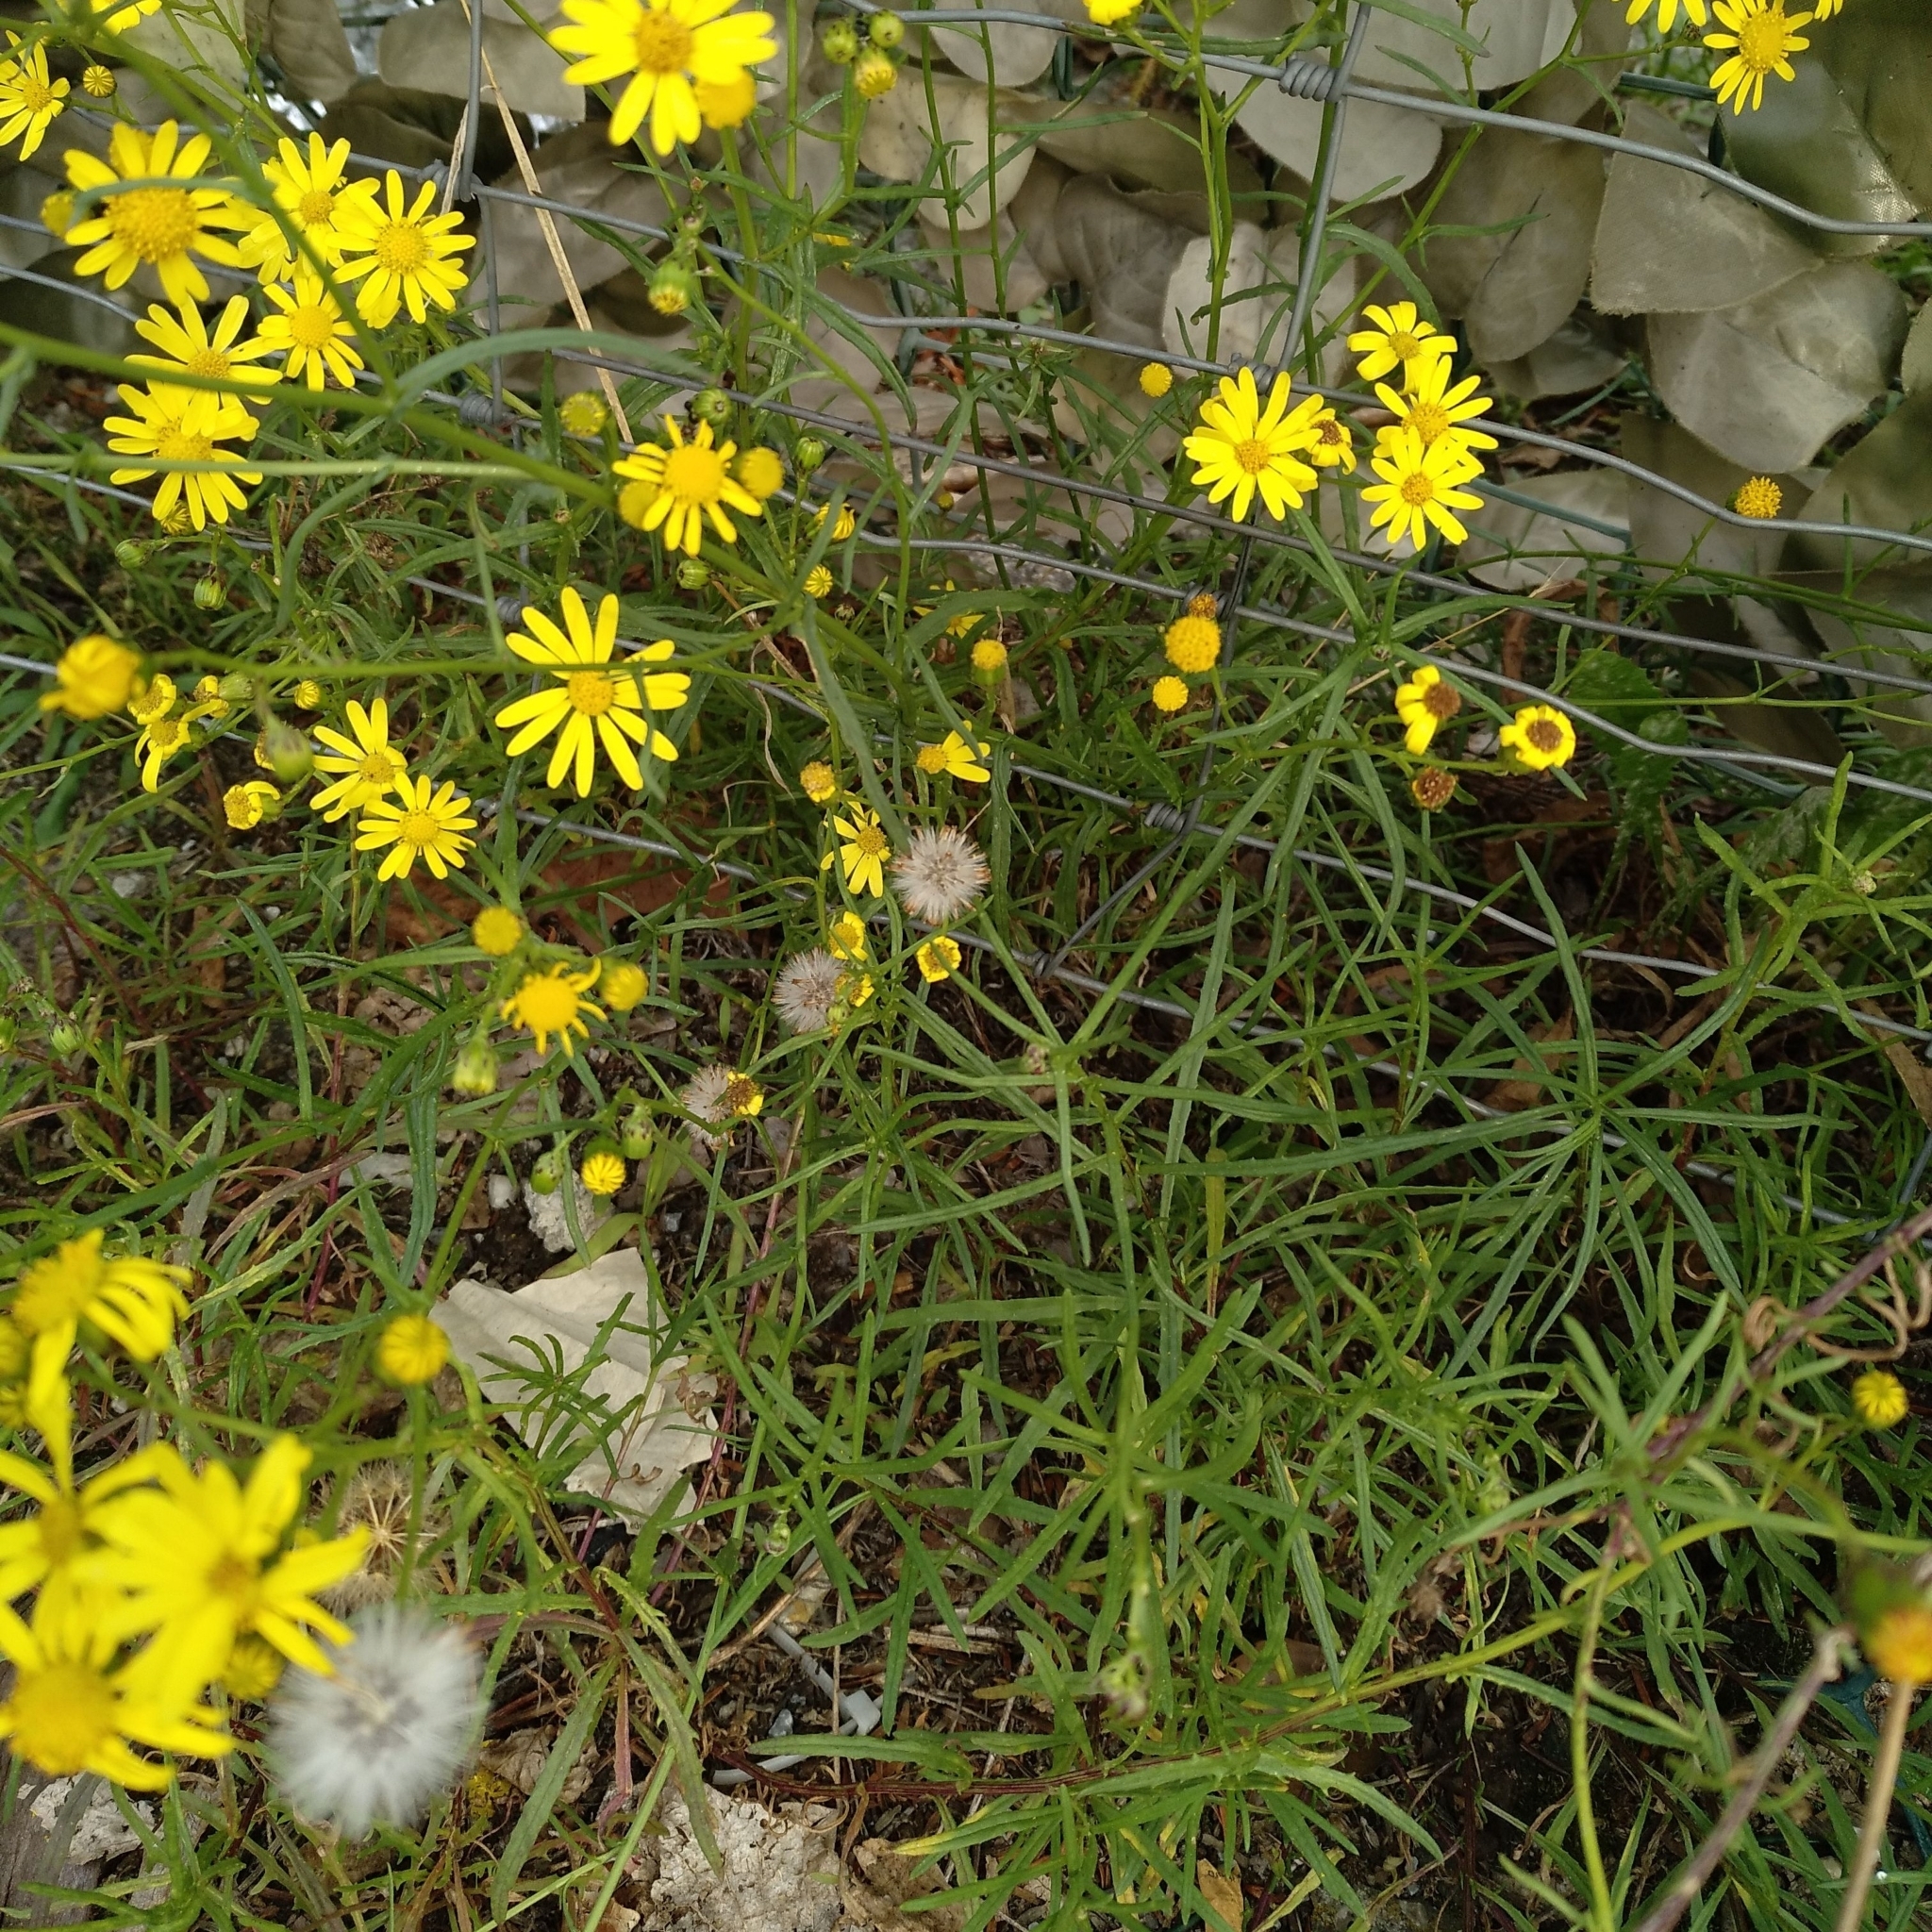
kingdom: Plantae
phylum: Tracheophyta
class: Magnoliopsida
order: Asterales
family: Asteraceae
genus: Senecio
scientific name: Senecio inaequidens
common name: Narrow-leaved ragwort
